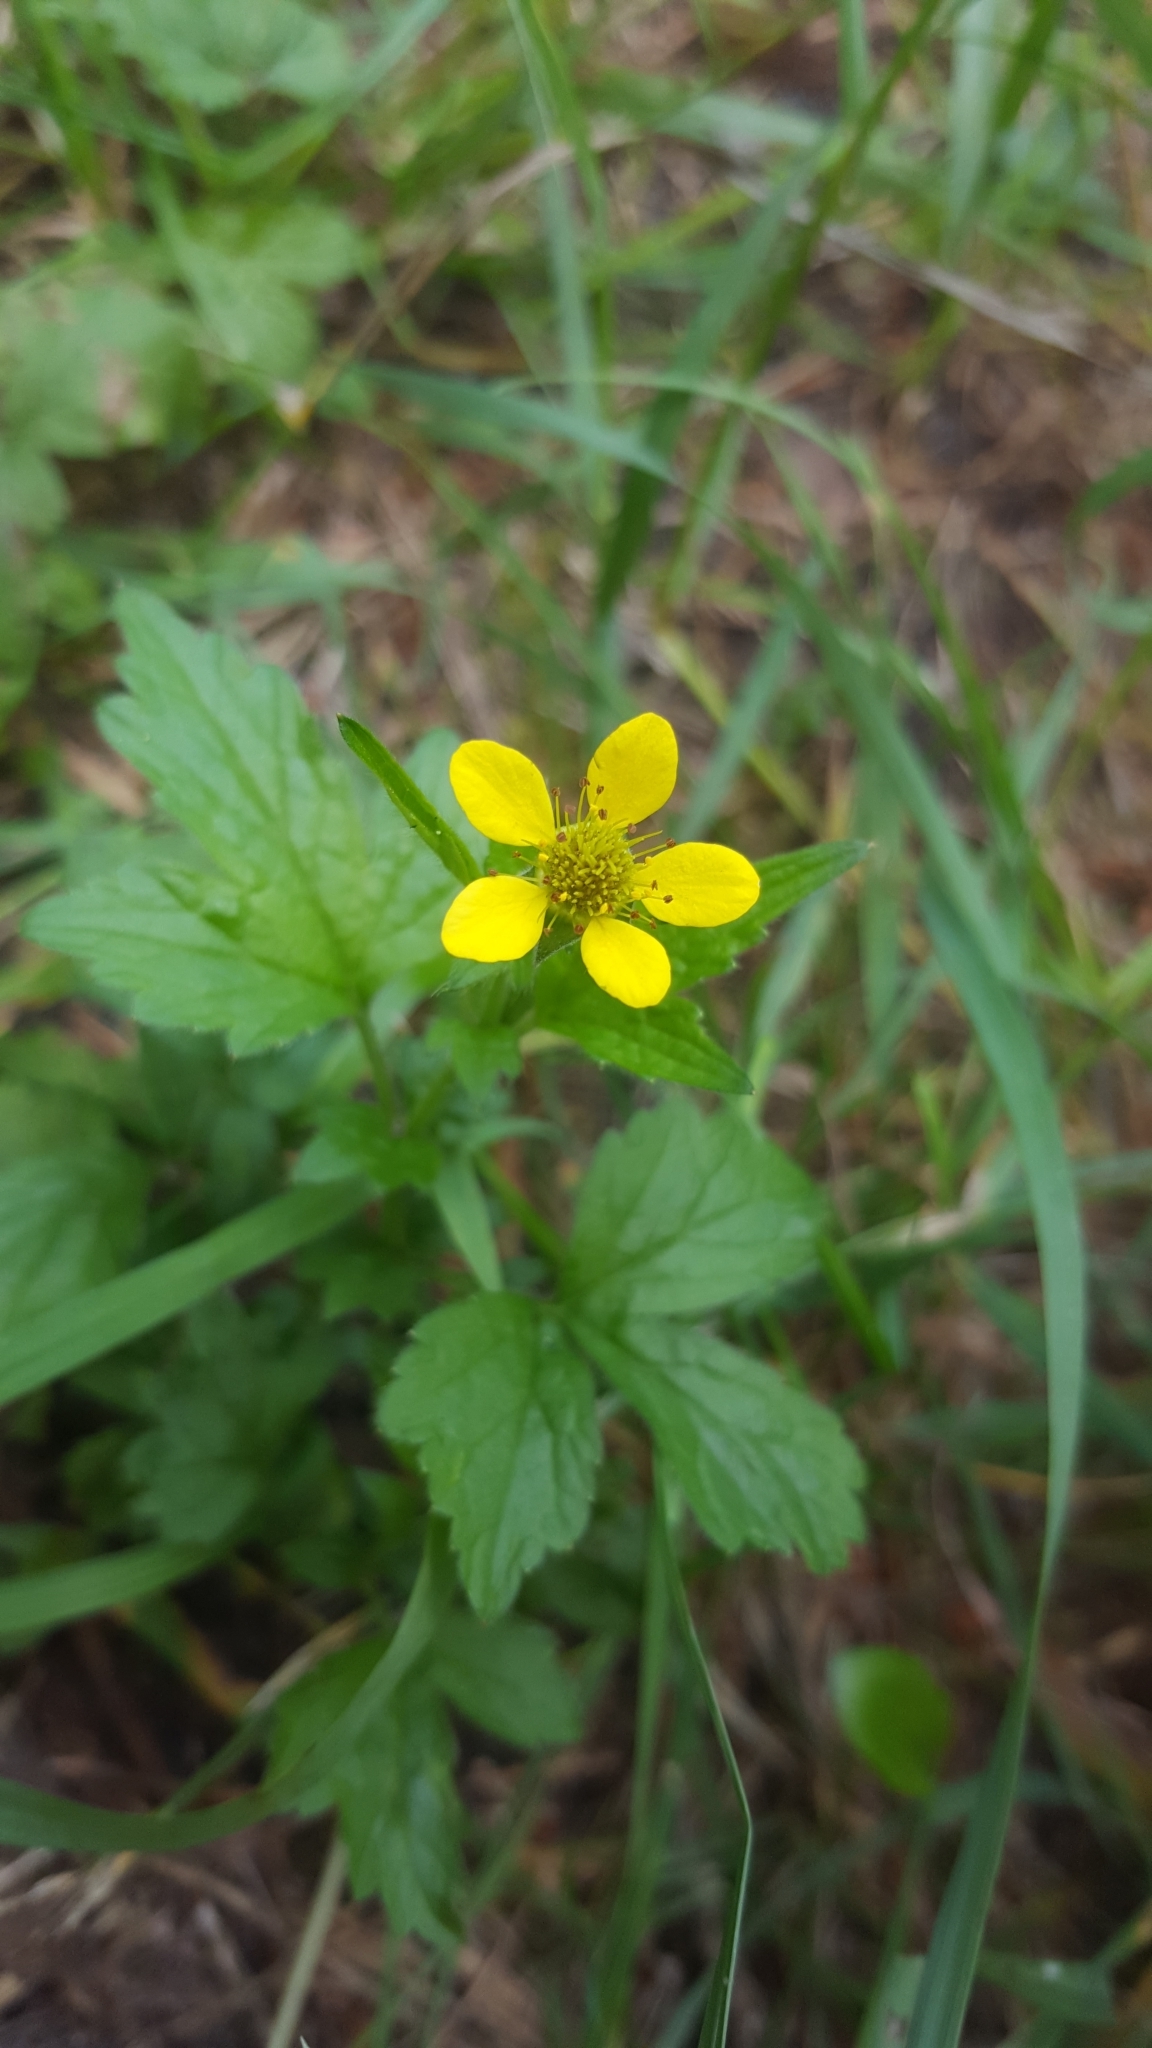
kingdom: Plantae
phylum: Tracheophyta
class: Magnoliopsida
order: Rosales
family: Rosaceae
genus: Geum
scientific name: Geum urbanum
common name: Wood avens
